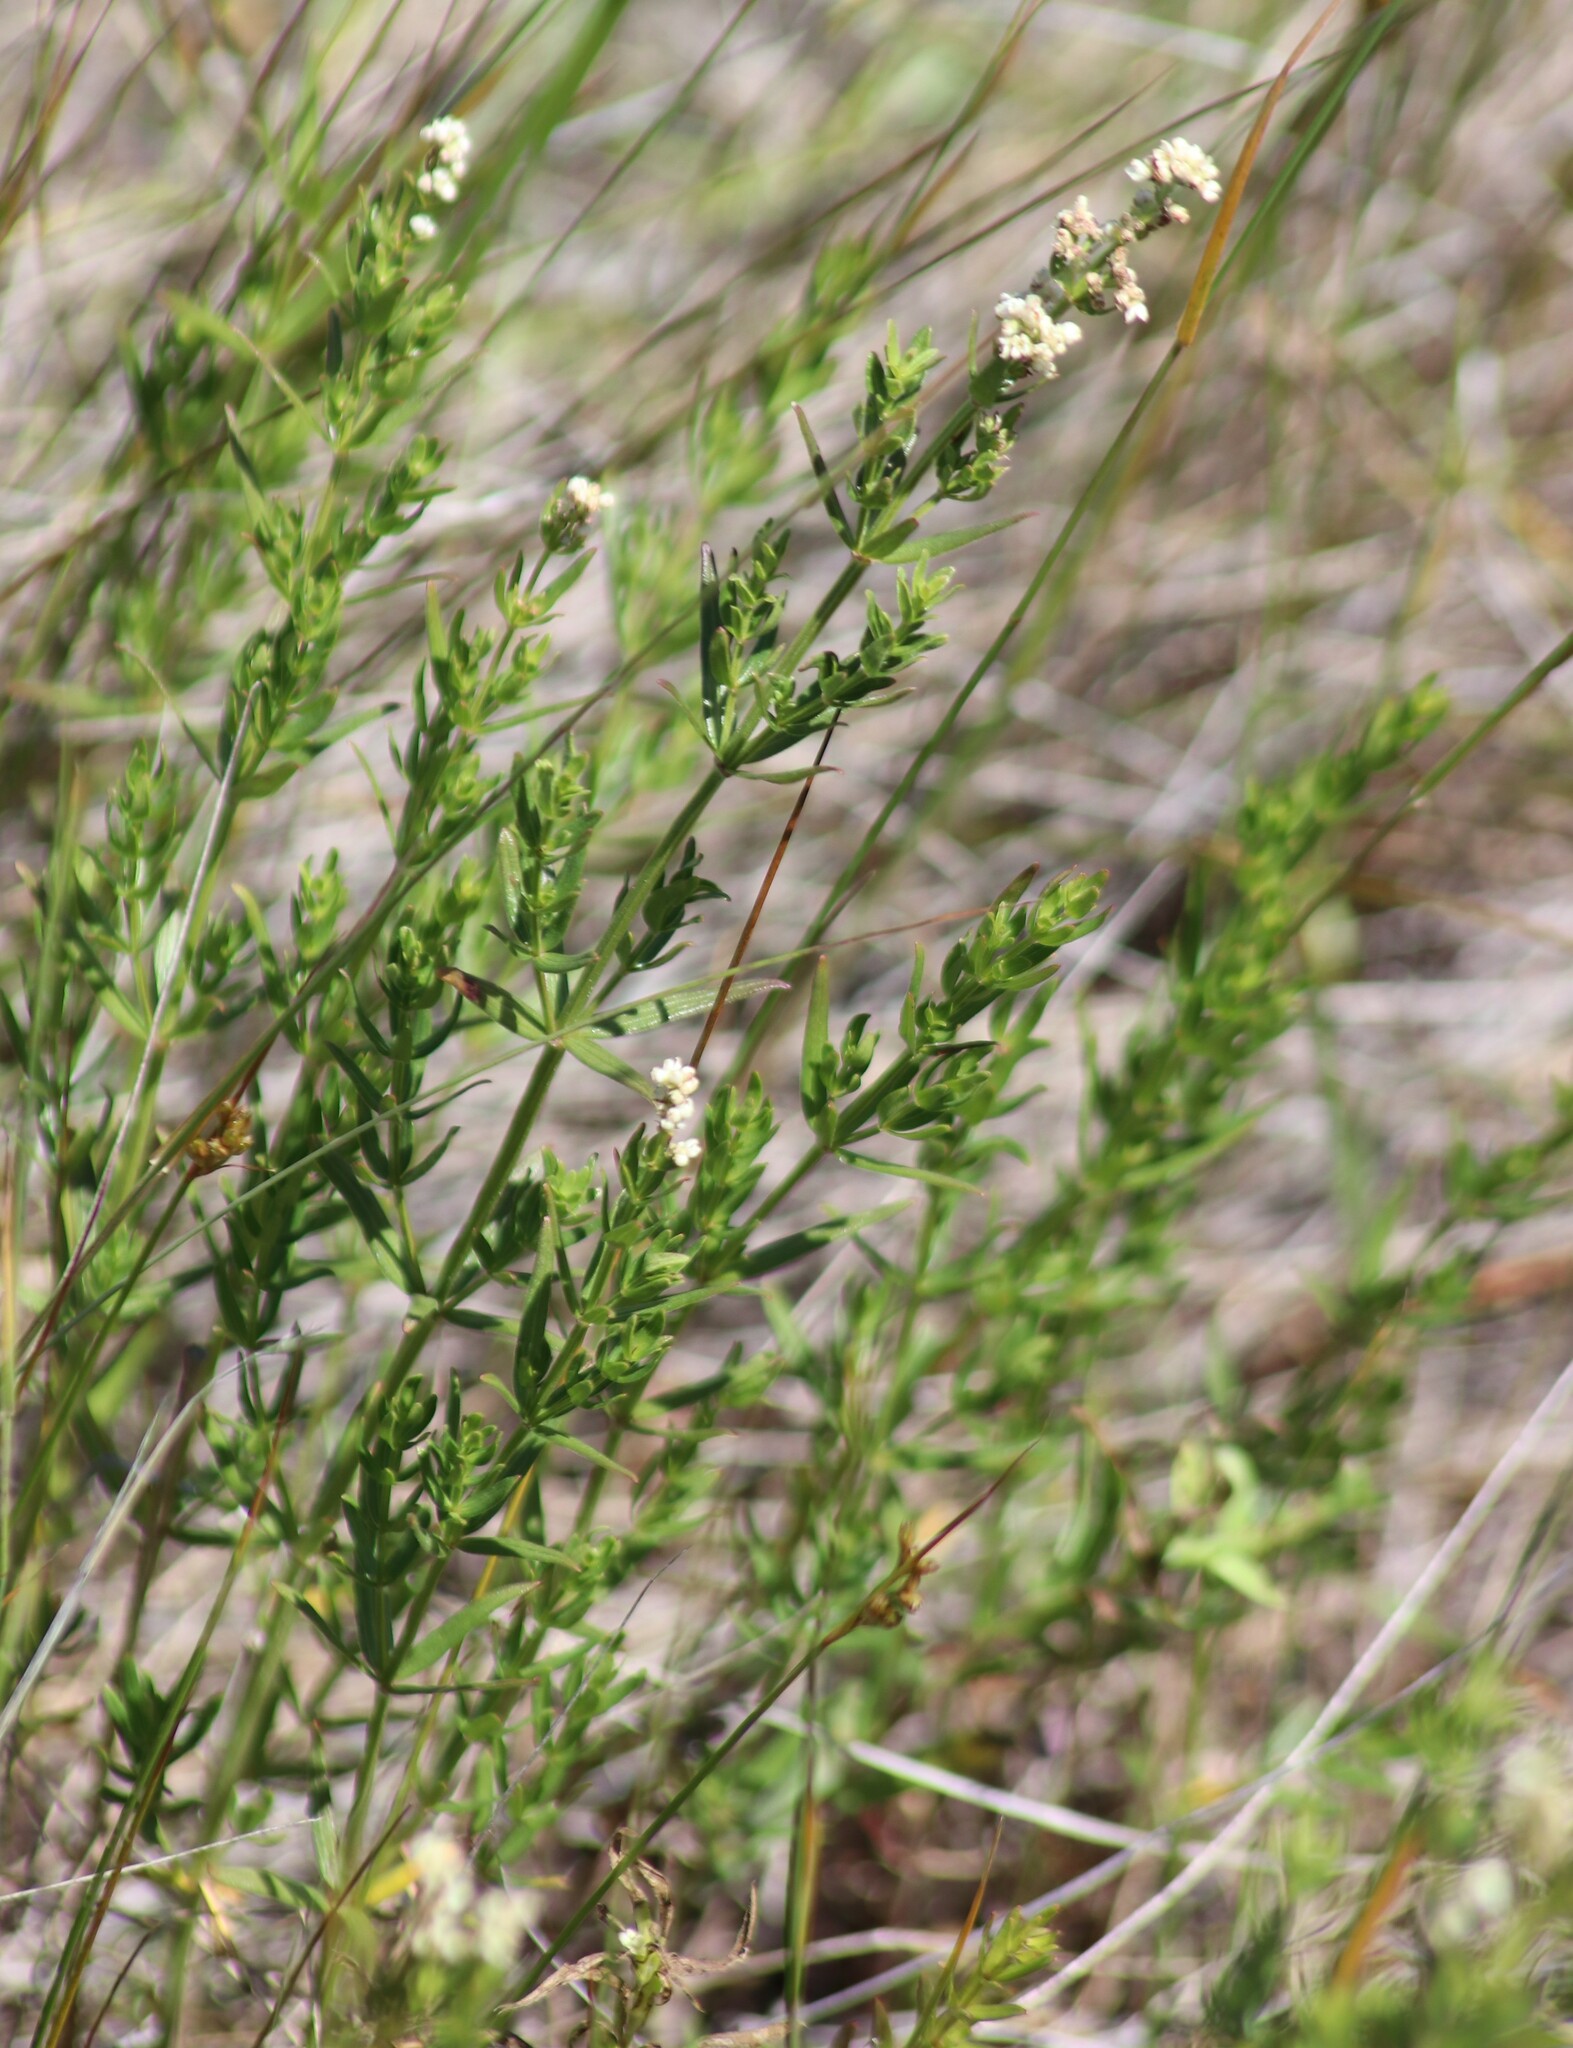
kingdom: Plantae
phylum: Tracheophyta
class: Magnoliopsida
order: Gentianales
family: Rubiaceae
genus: Galium
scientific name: Galium boreale
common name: Northern bedstraw
